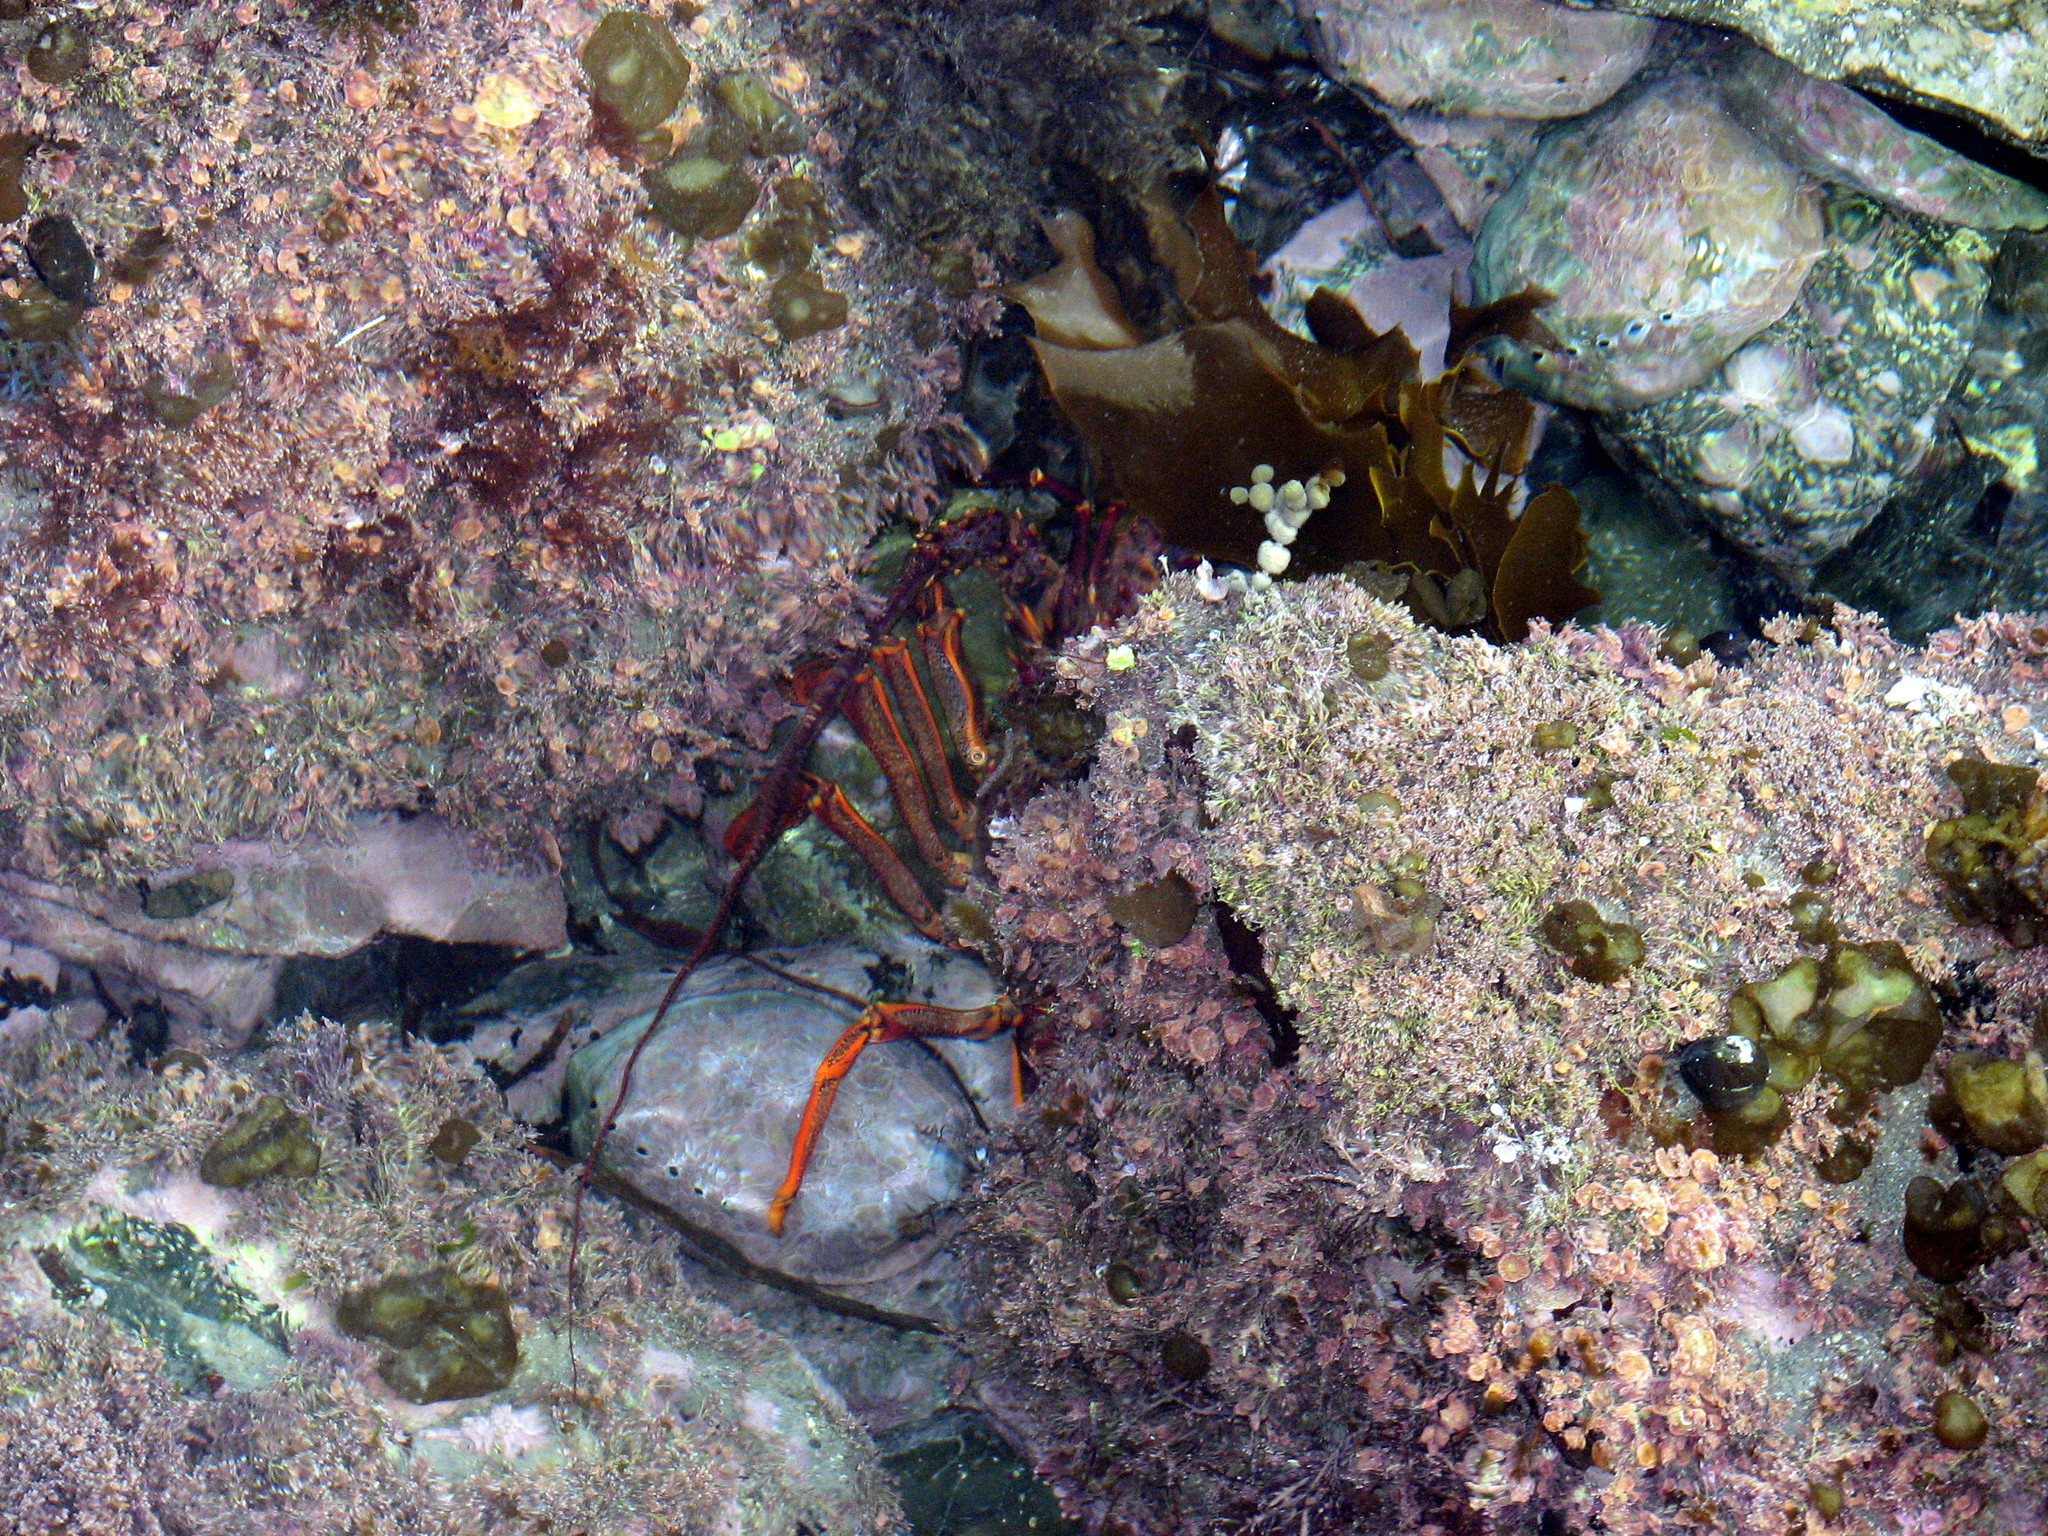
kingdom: Animalia
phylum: Arthropoda
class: Malacostraca
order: Decapoda
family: Palinuridae
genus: Jasus
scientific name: Jasus edwardsii
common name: Red rock lobster
